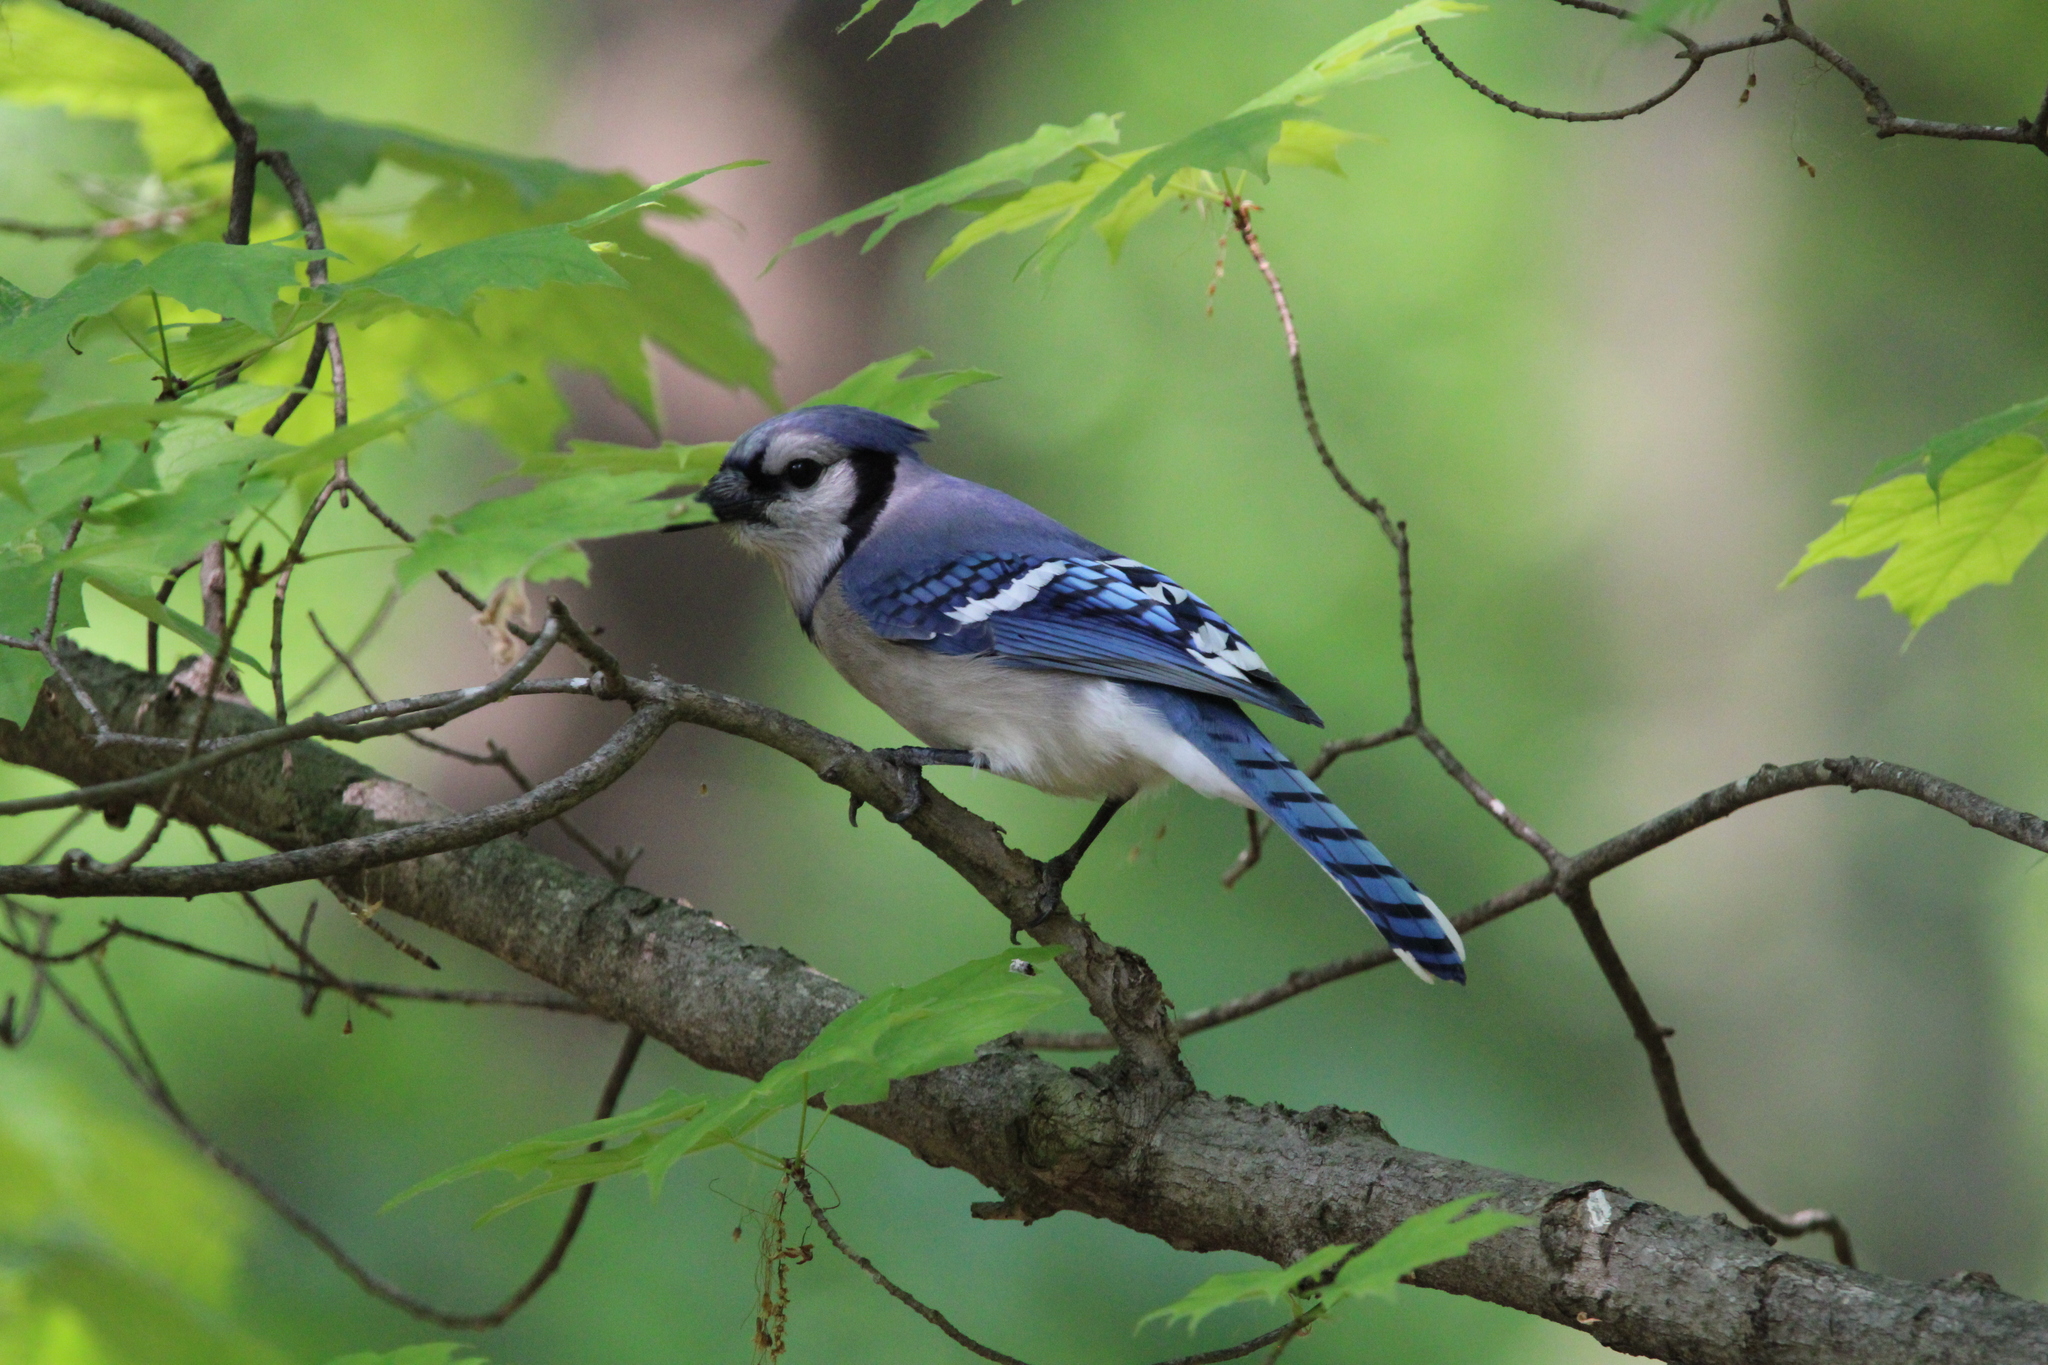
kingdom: Animalia
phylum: Chordata
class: Aves
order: Passeriformes
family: Corvidae
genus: Cyanocitta
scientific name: Cyanocitta cristata
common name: Blue jay
